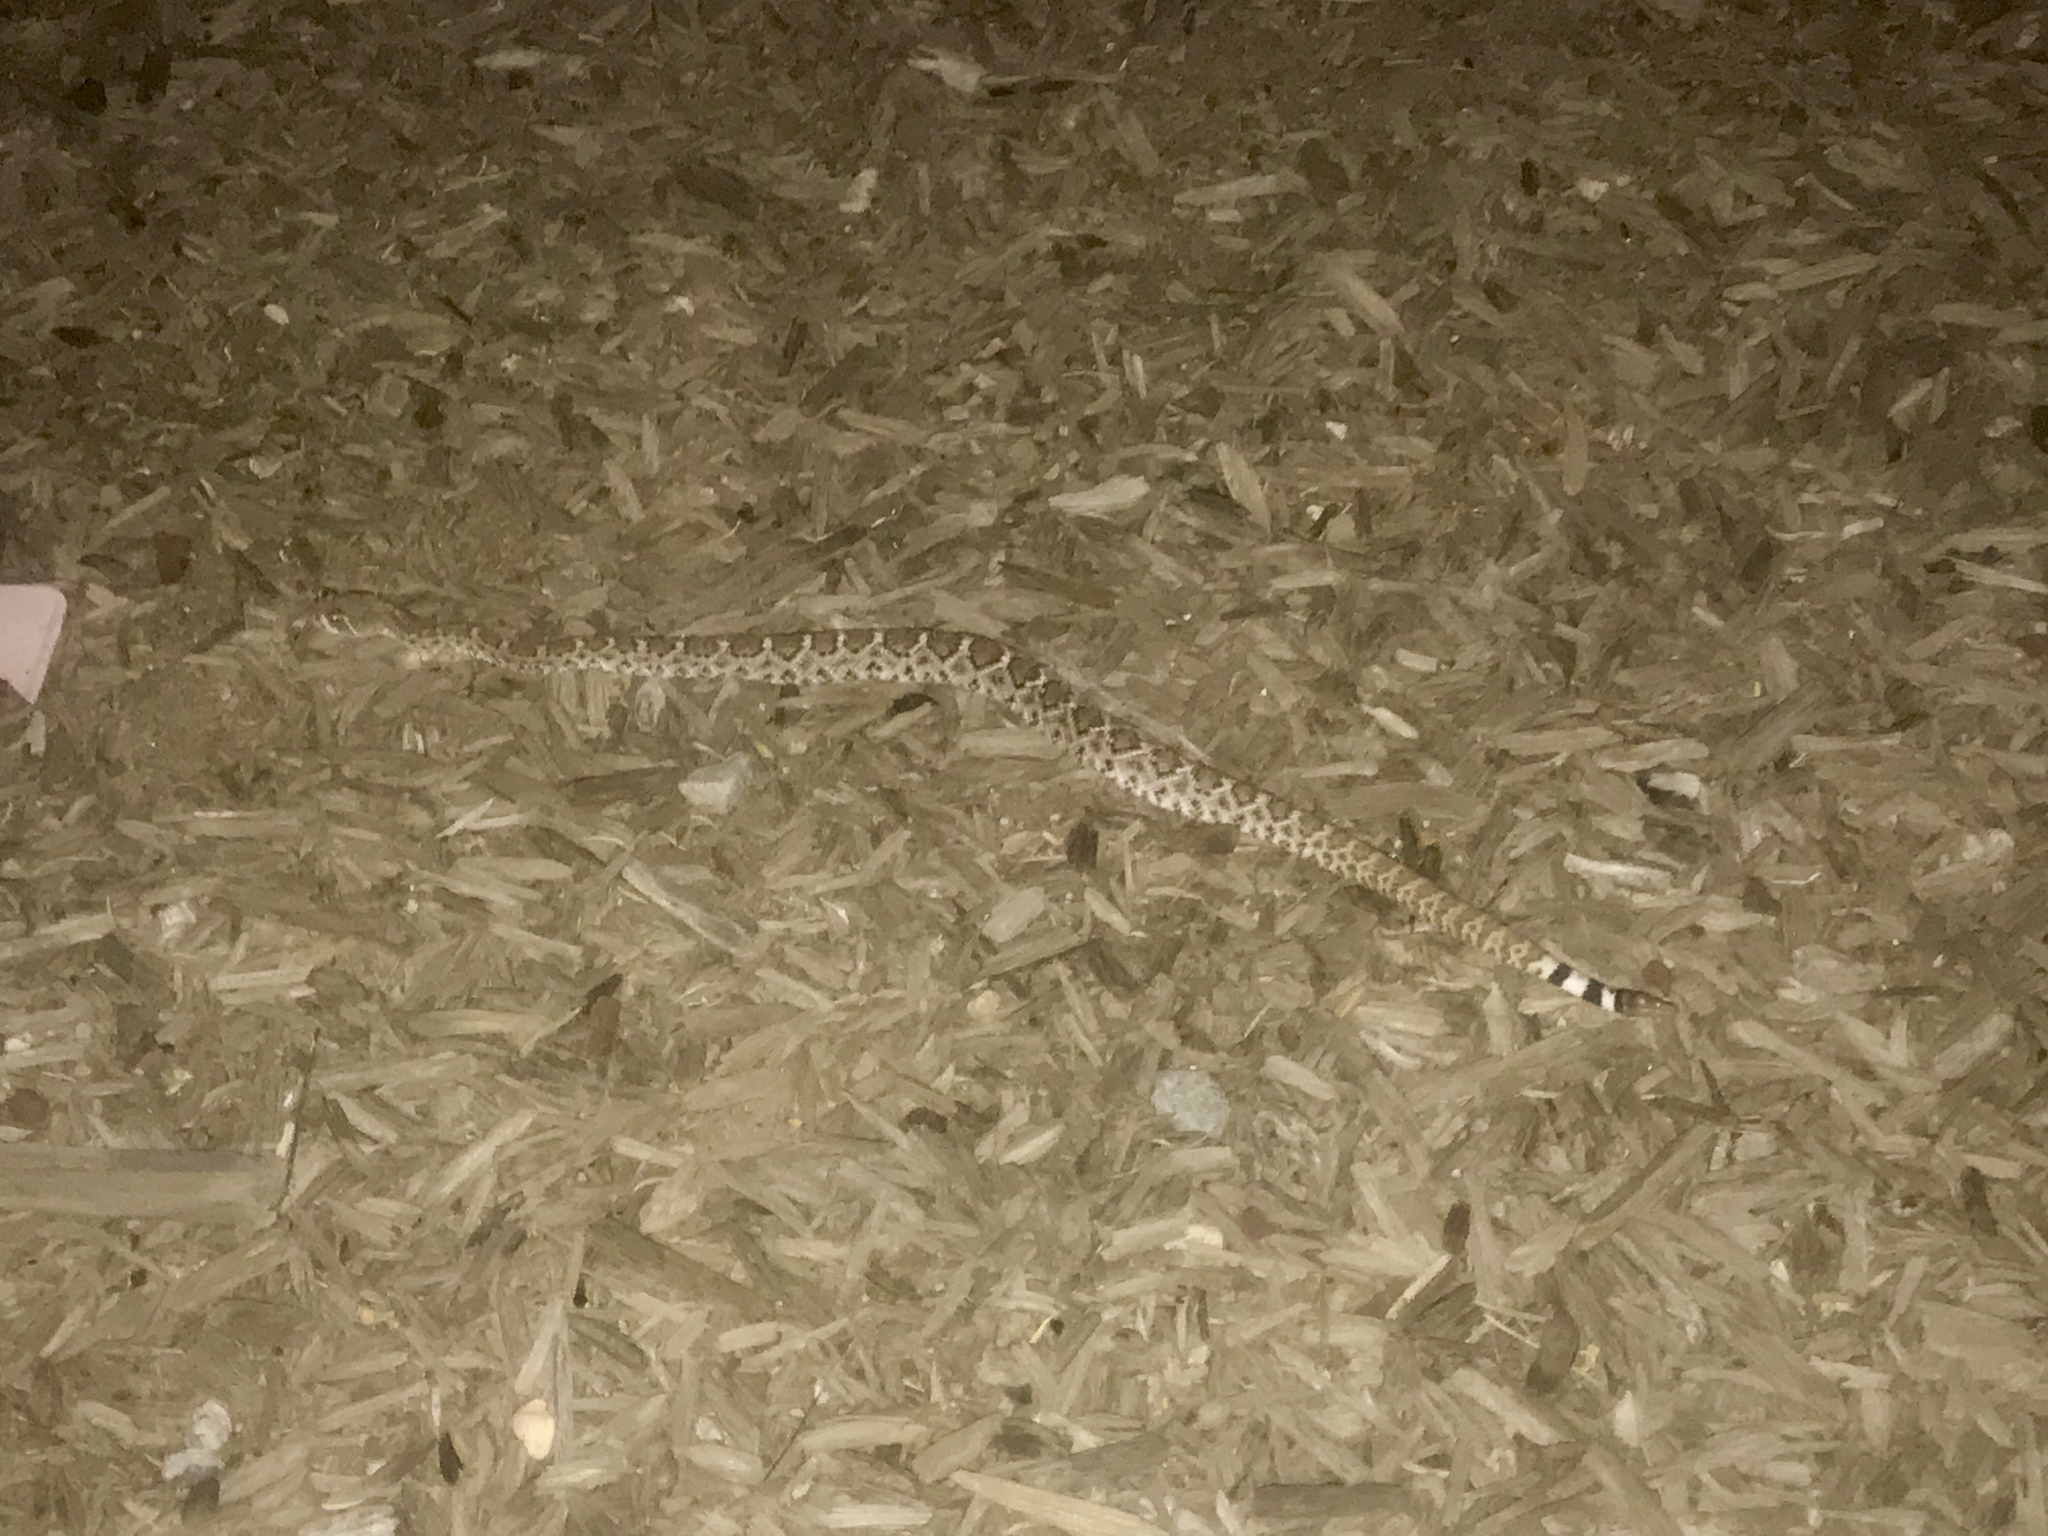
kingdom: Animalia
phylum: Chordata
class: Squamata
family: Viperidae
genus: Crotalus
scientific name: Crotalus atrox
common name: Western diamond-backed rattlesnake
